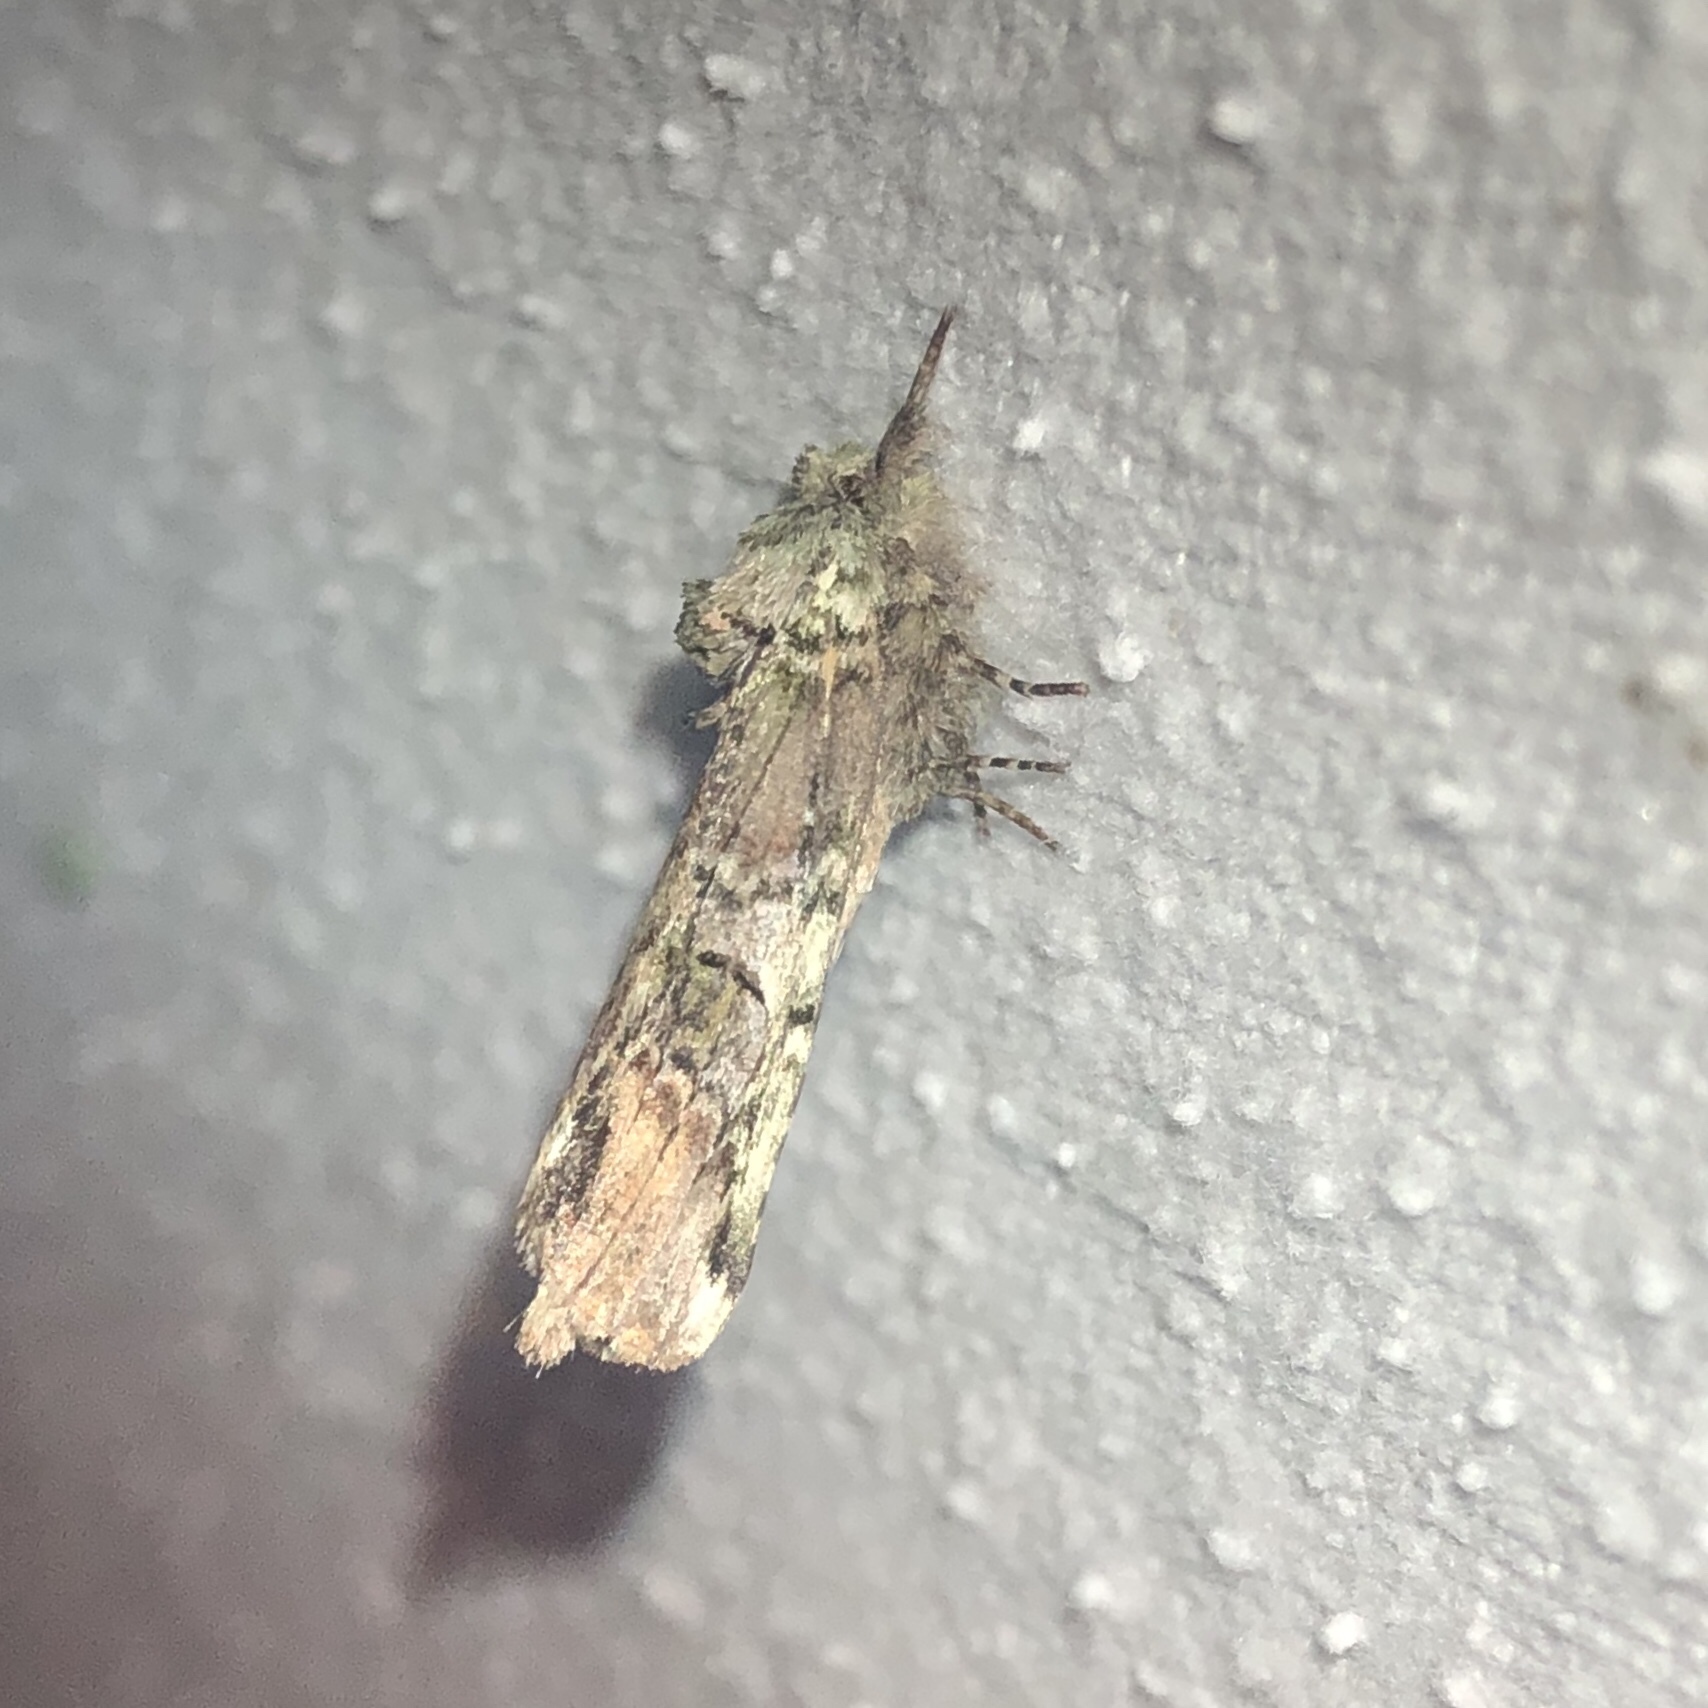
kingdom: Animalia
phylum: Arthropoda
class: Insecta
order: Lepidoptera
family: Notodontidae
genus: Schizura
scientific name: Schizura
